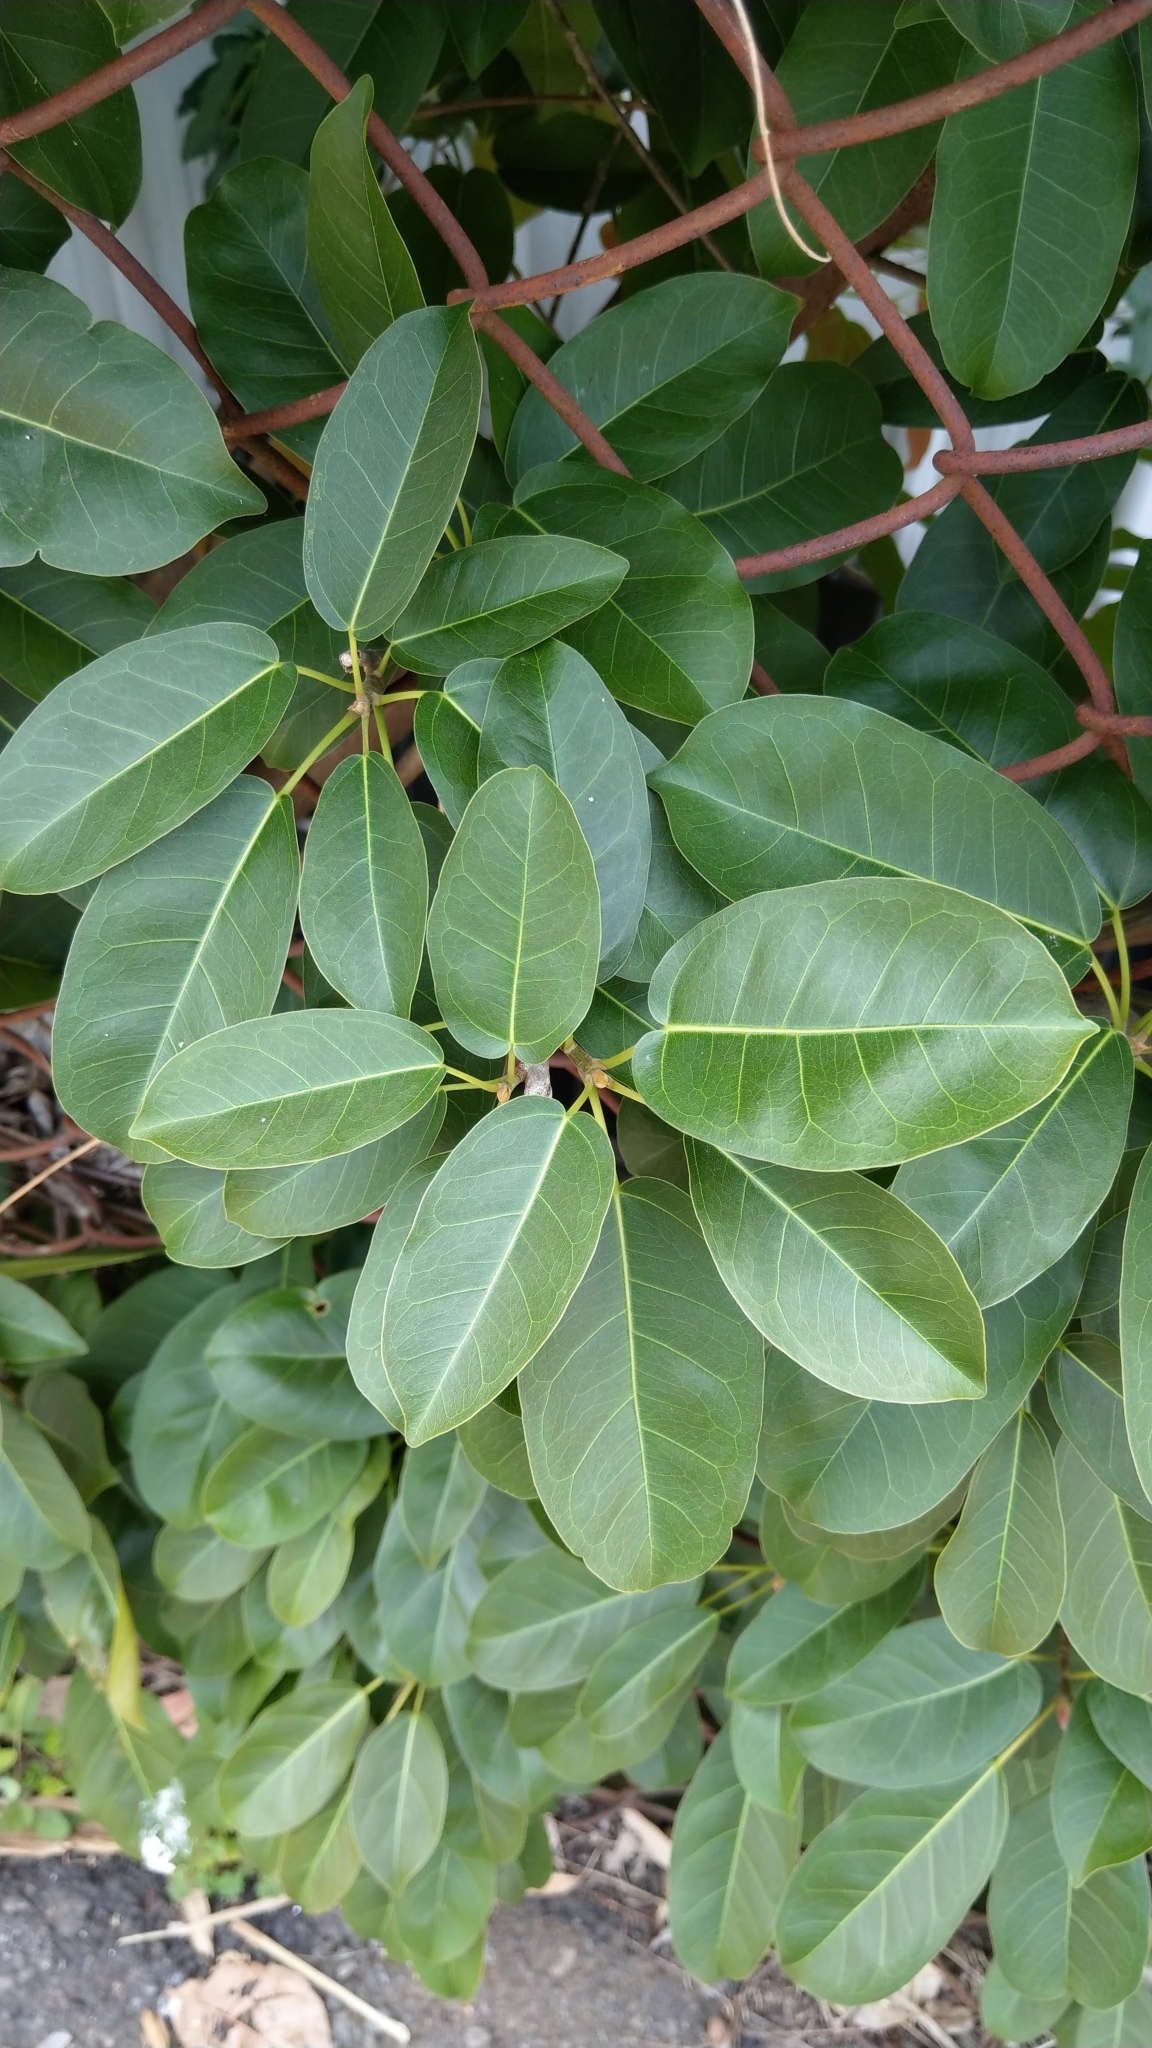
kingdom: Plantae
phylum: Tracheophyta
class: Magnoliopsida
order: Rosales
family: Moraceae
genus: Ficus
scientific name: Ficus subpisocarpa
